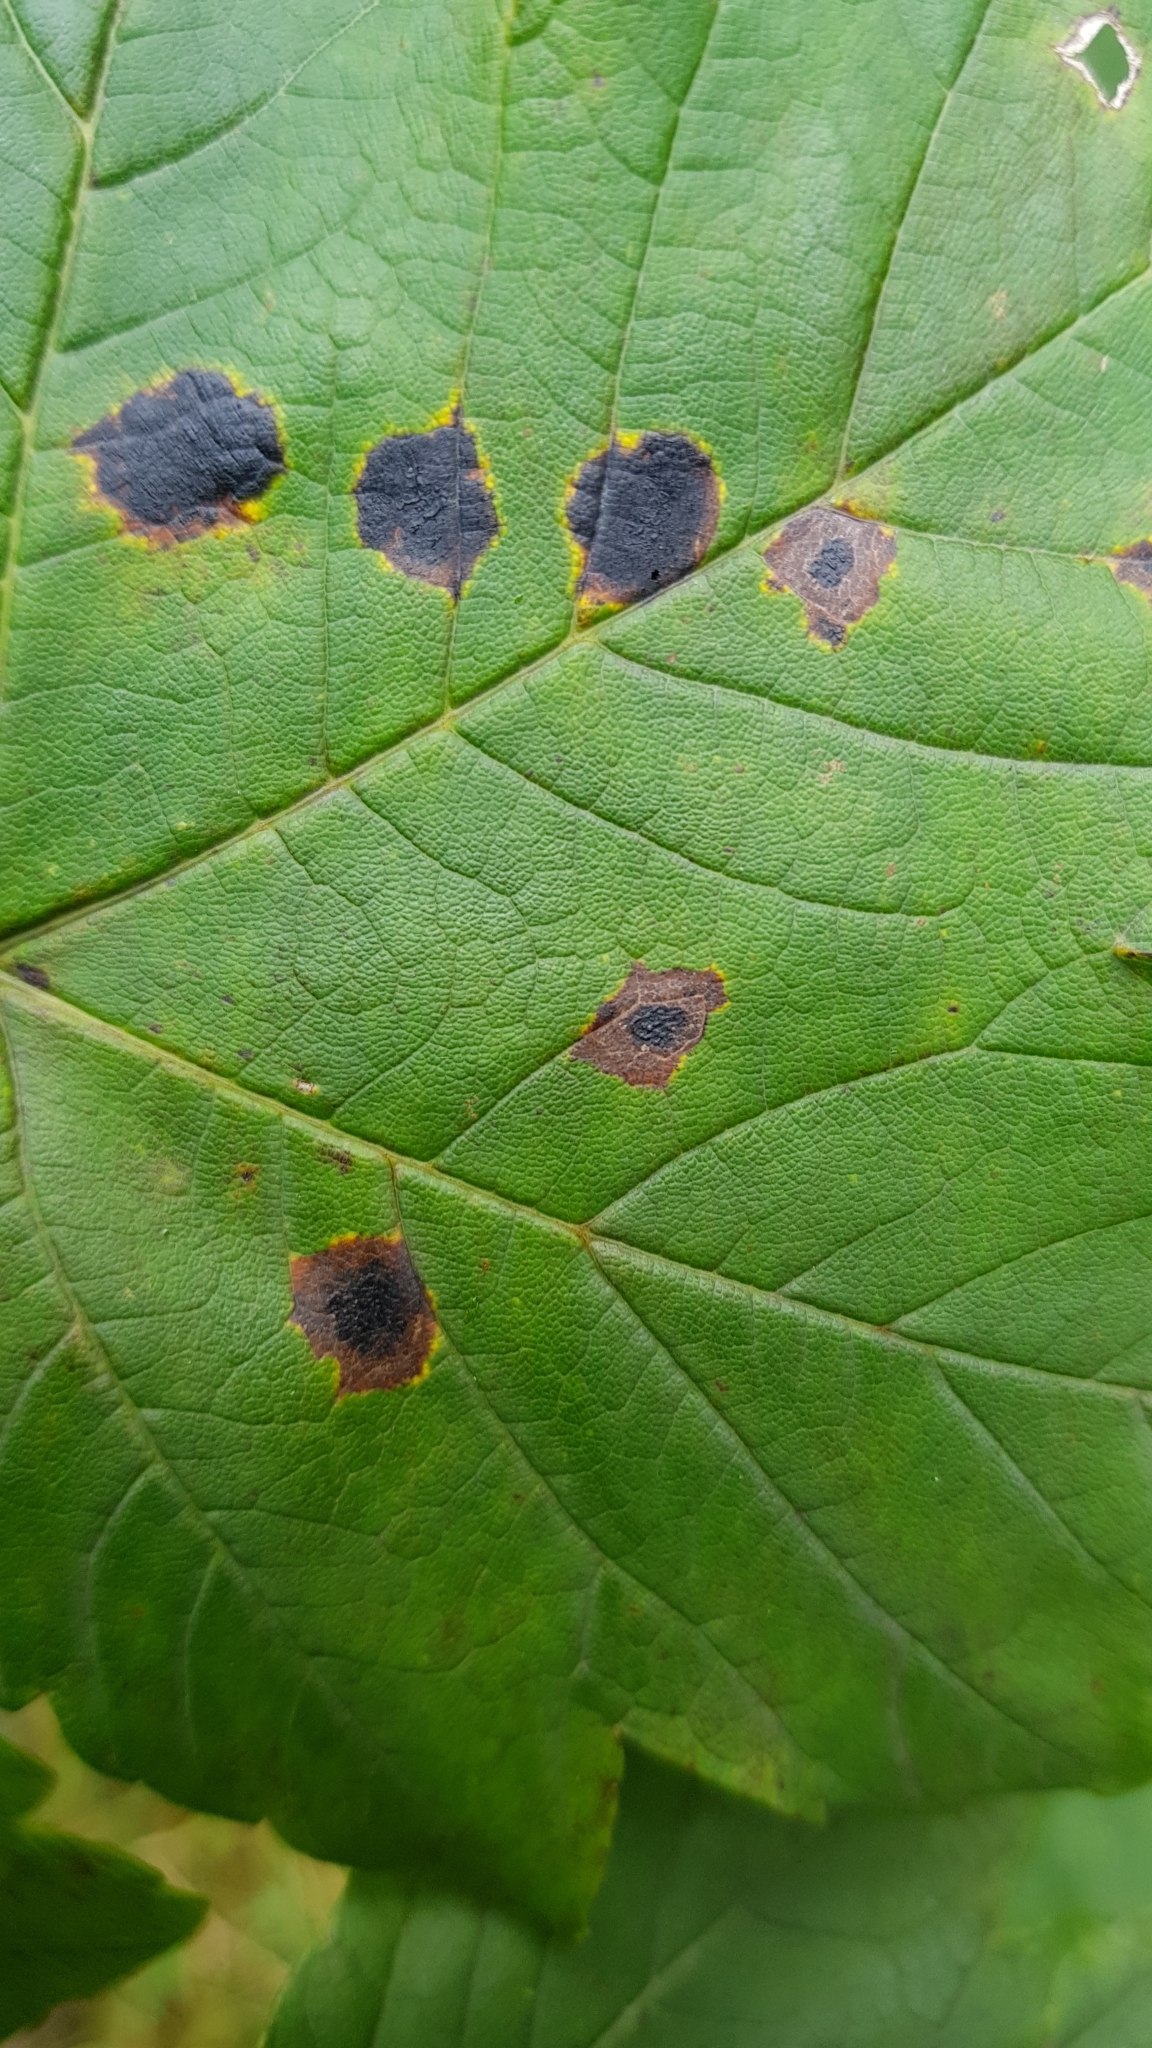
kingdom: Fungi
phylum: Ascomycota
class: Leotiomycetes
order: Rhytismatales
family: Rhytismataceae
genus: Rhytisma
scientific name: Rhytisma acerinum
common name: European tar spot
